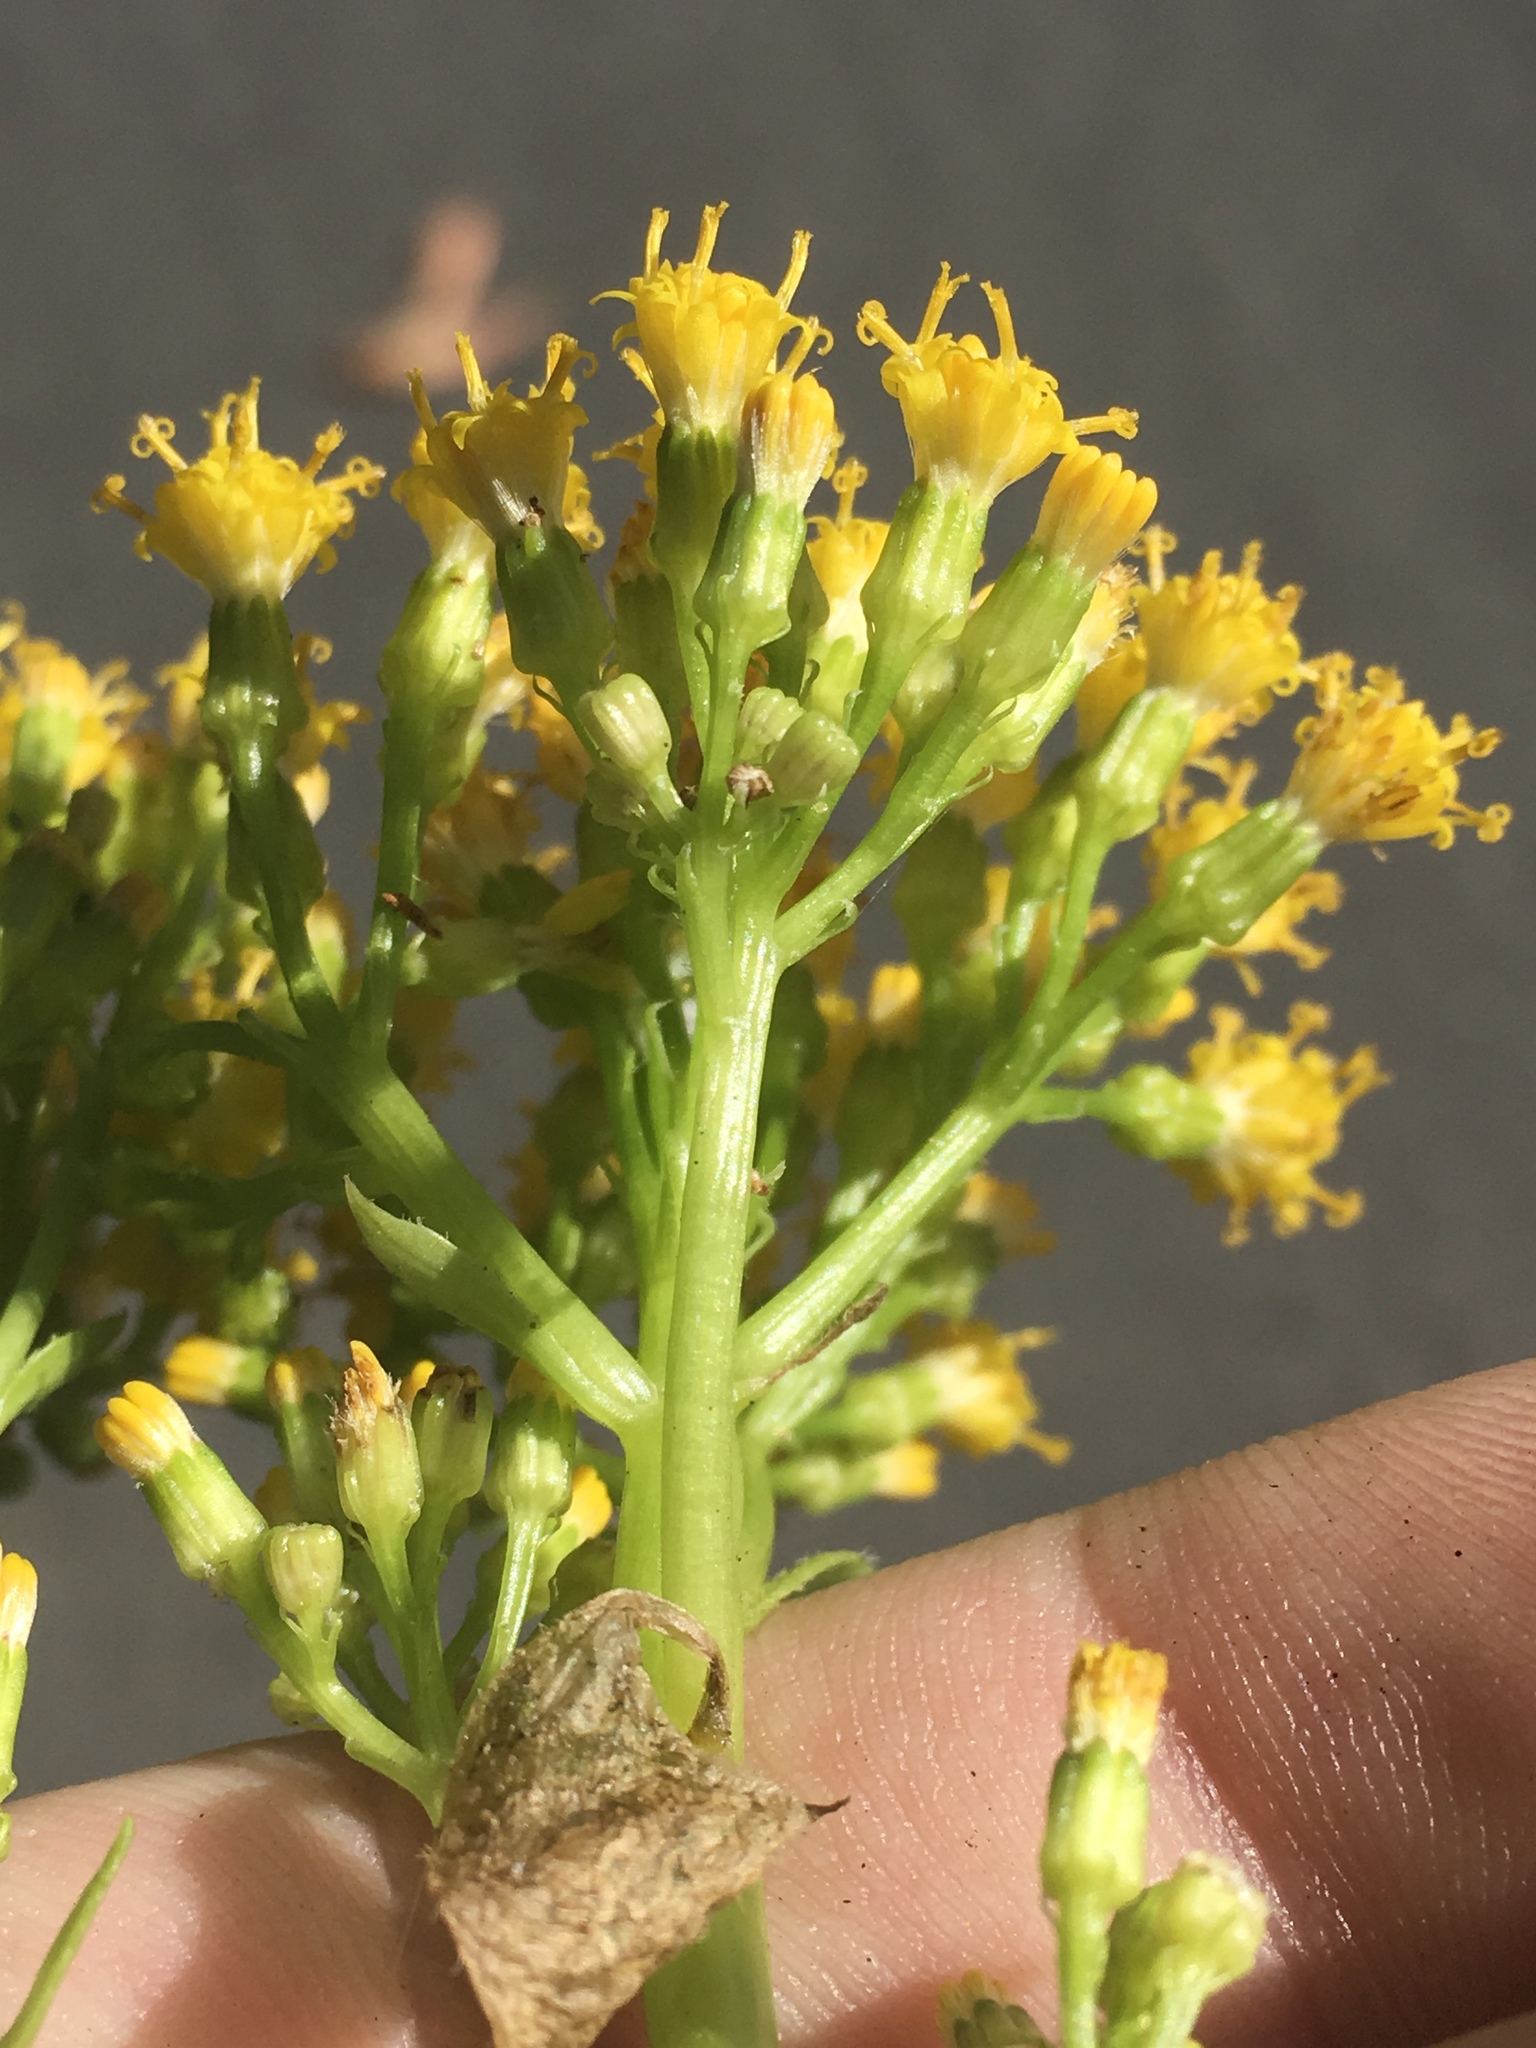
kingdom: Plantae
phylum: Tracheophyta
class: Magnoliopsida
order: Asterales
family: Asteraceae
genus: Delairea
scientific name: Delairea odorata
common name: Cape-ivy
